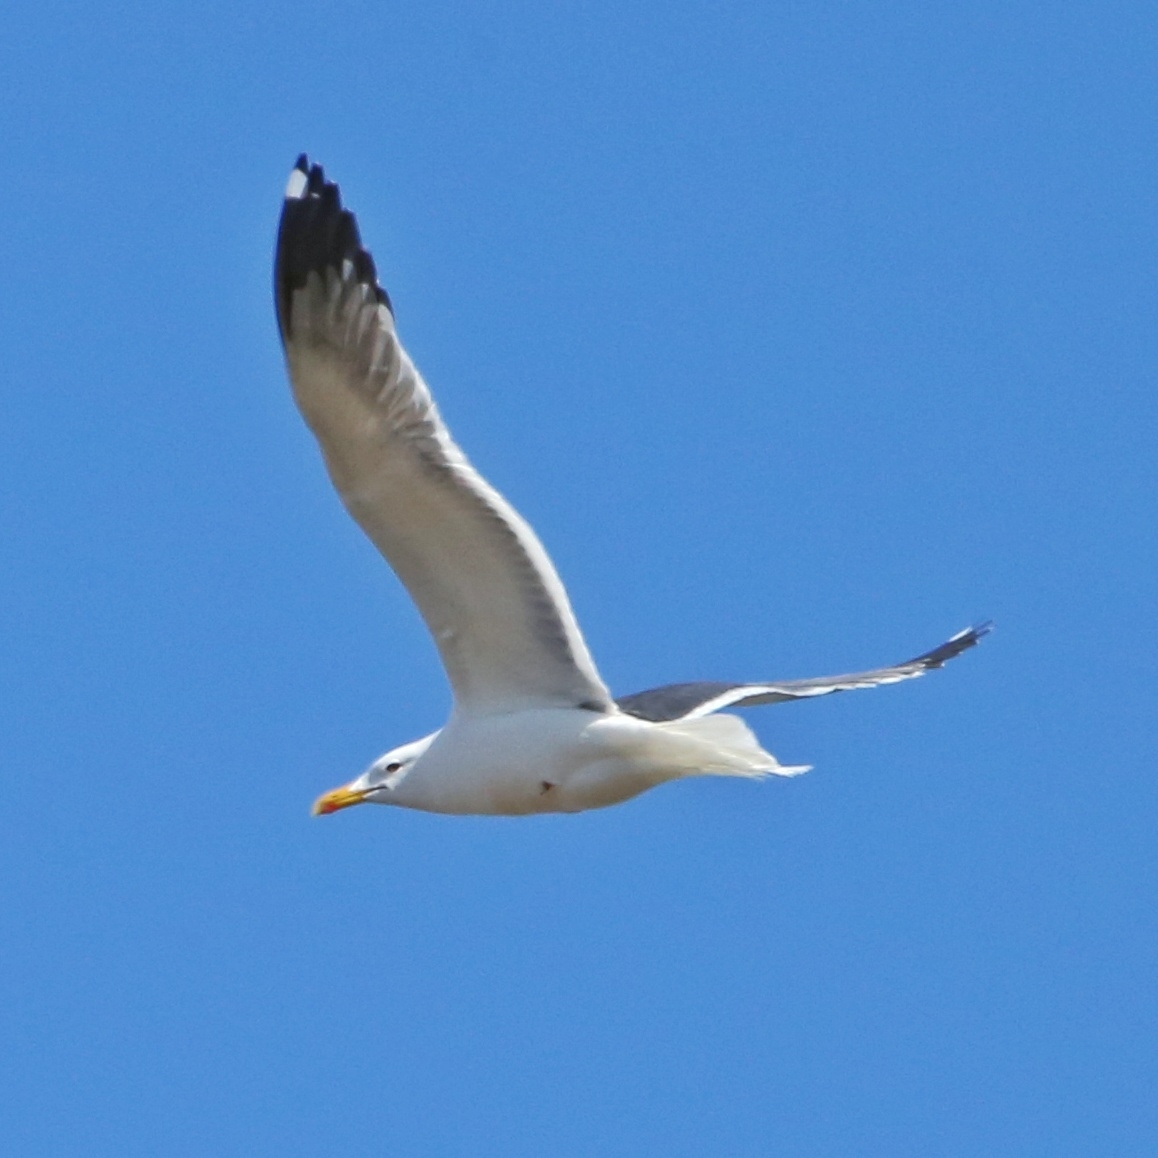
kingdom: Animalia
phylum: Chordata
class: Aves
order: Charadriiformes
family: Laridae
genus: Larus
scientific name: Larus canus
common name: Mew gull
